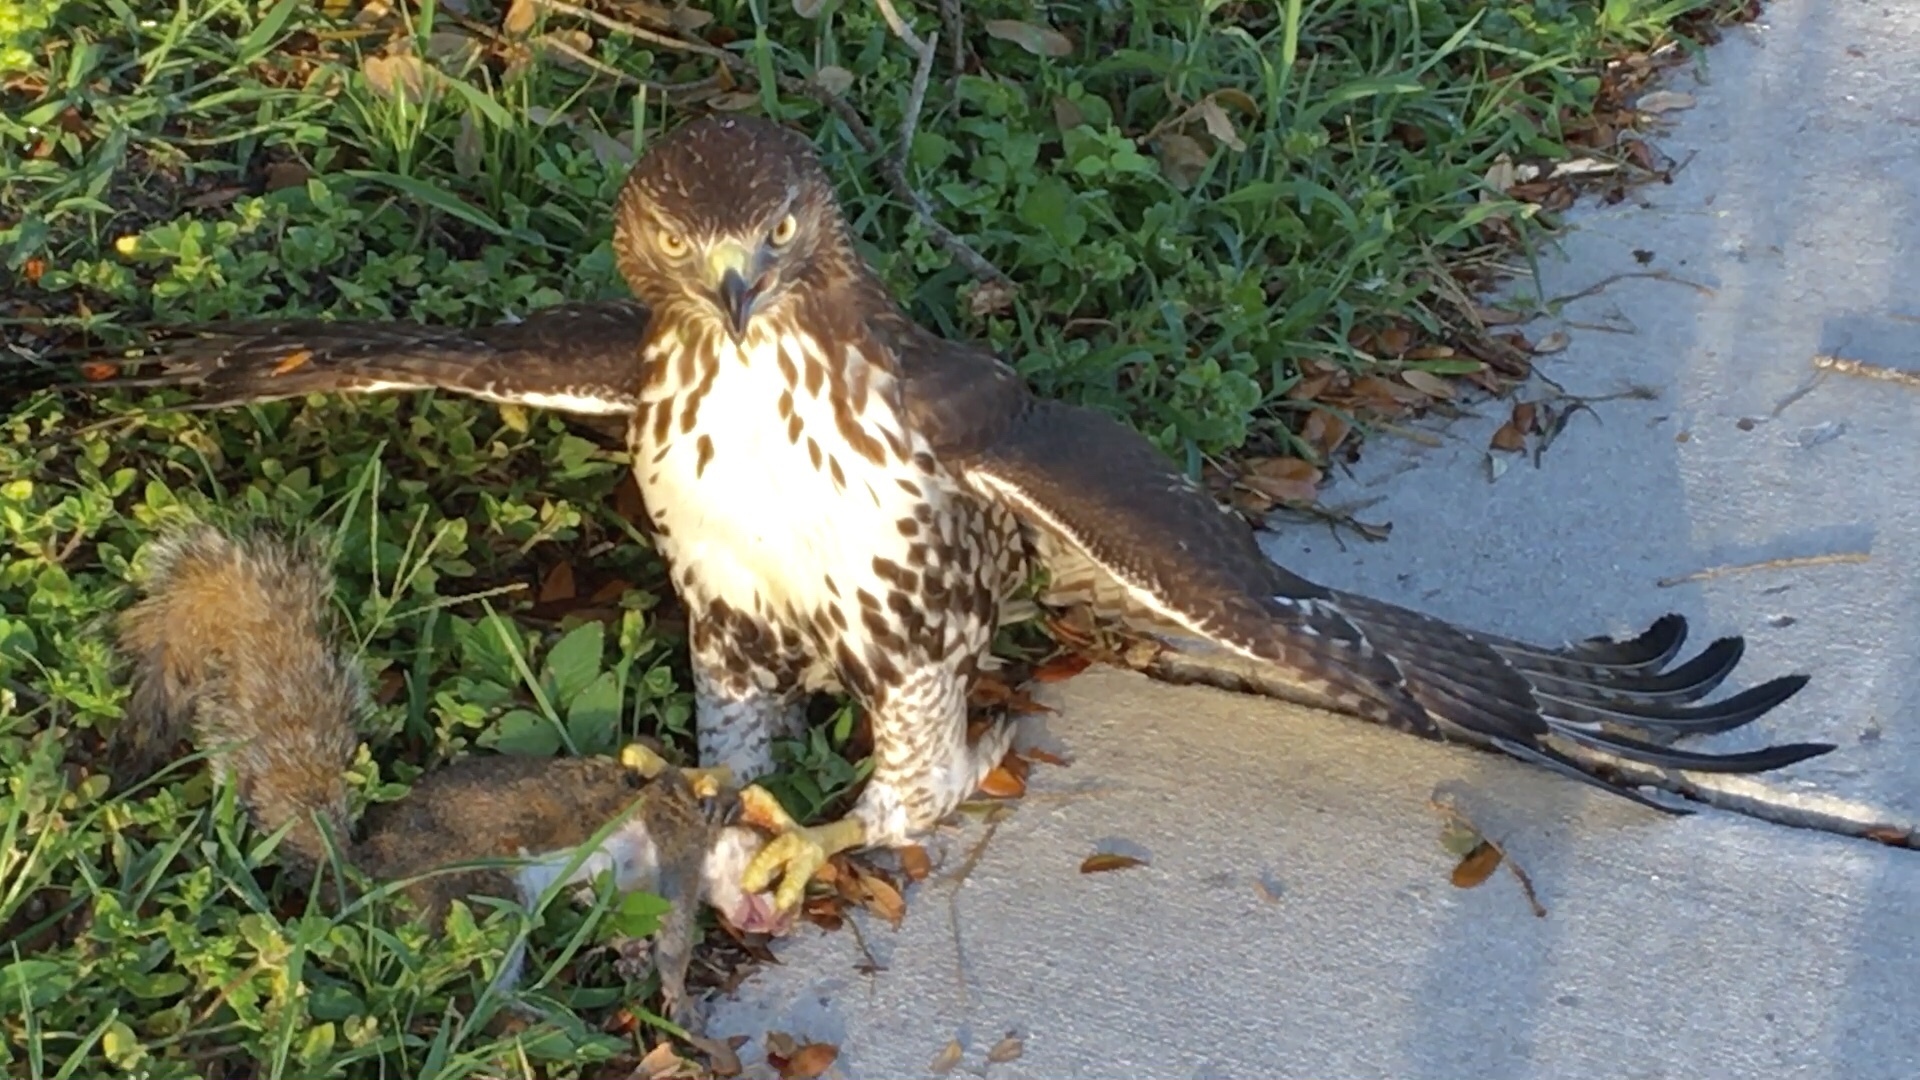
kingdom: Animalia
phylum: Chordata
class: Aves
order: Accipitriformes
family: Accipitridae
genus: Buteo
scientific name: Buteo jamaicensis
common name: Red-tailed hawk
